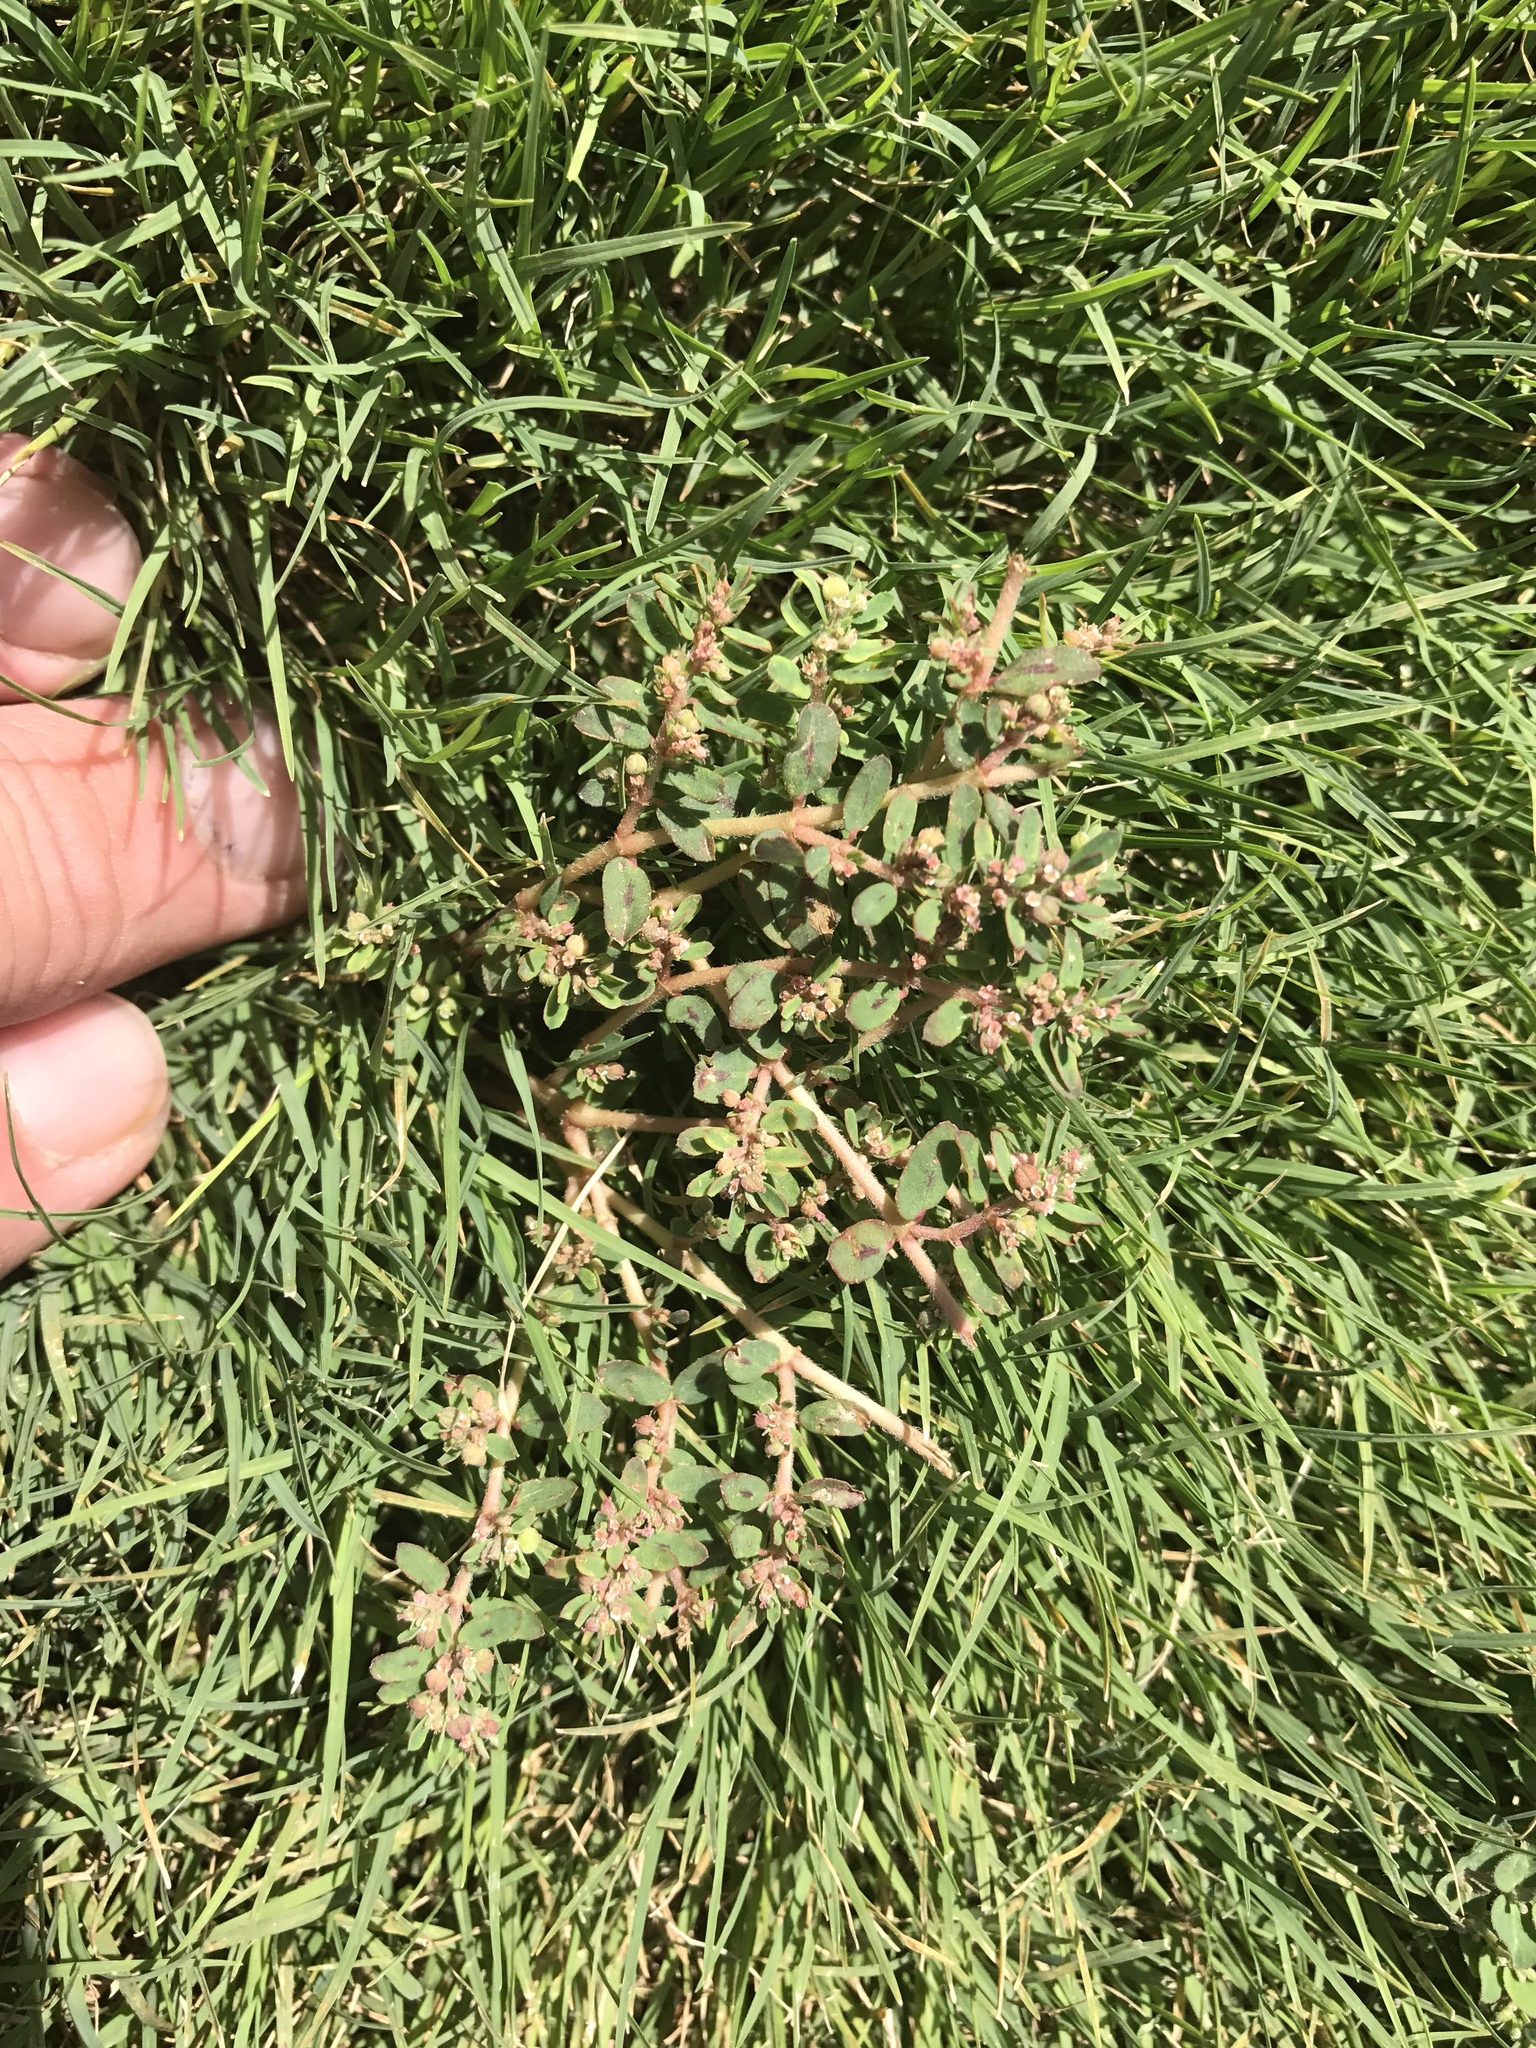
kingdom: Plantae
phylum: Tracheophyta
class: Magnoliopsida
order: Malpighiales
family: Euphorbiaceae
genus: Euphorbia
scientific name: Euphorbia maculata
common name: Spotted spurge
